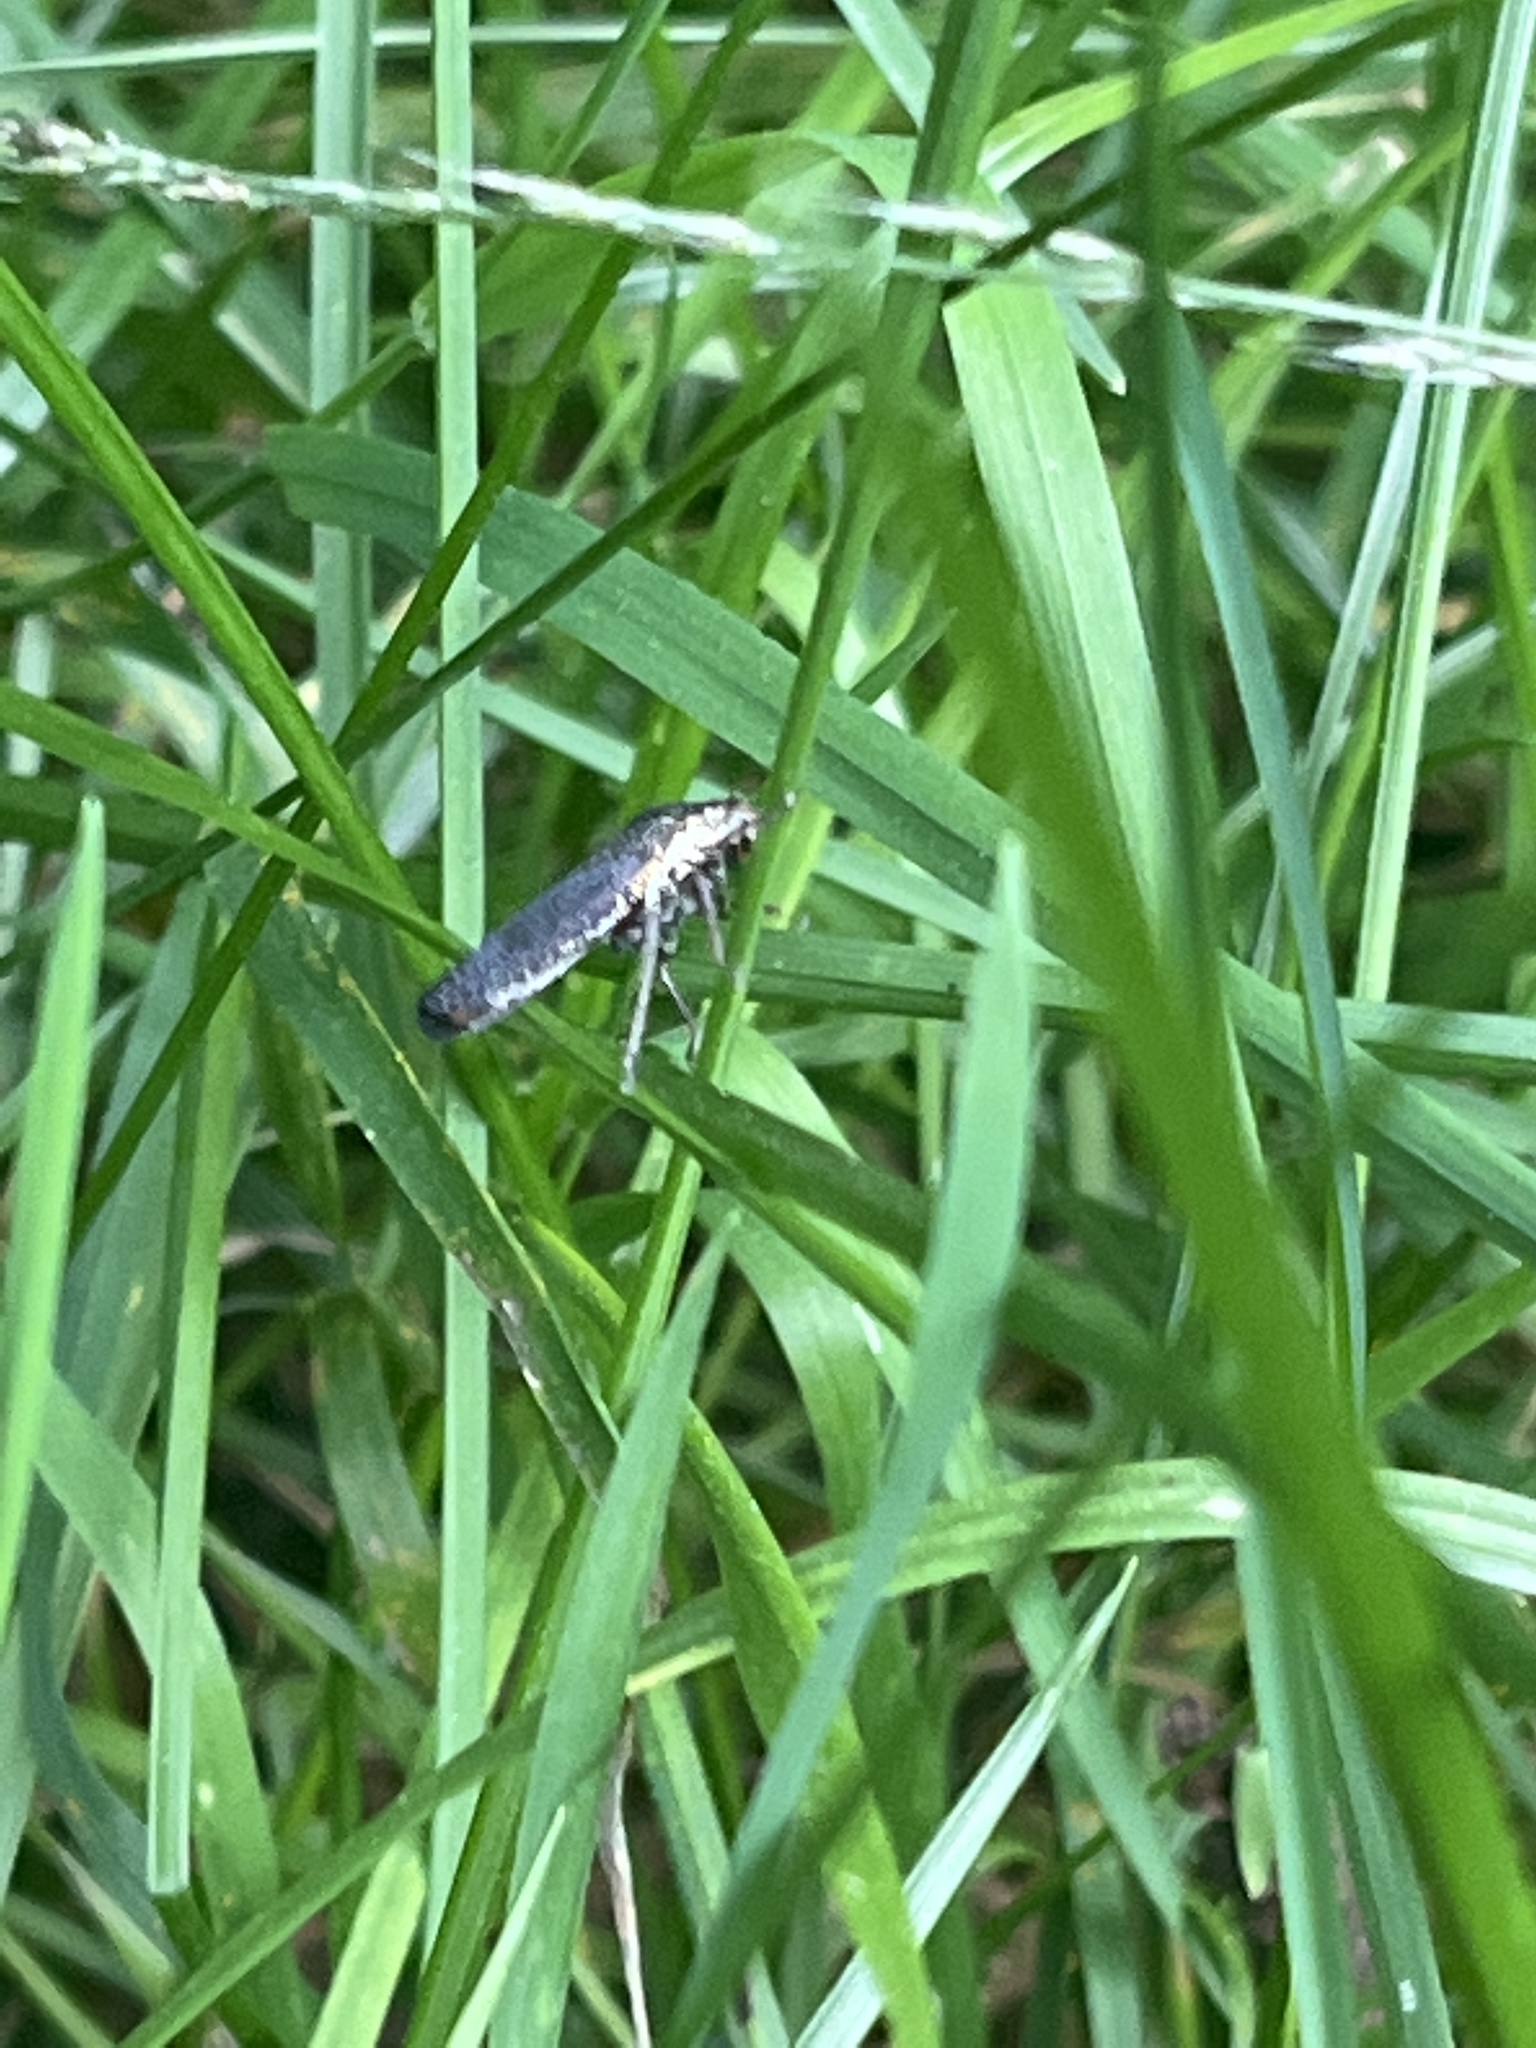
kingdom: Animalia
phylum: Arthropoda
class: Insecta
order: Hemiptera
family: Cicadellidae
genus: Paraulacizes
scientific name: Paraulacizes irrorata
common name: Speckled sharpshooter
